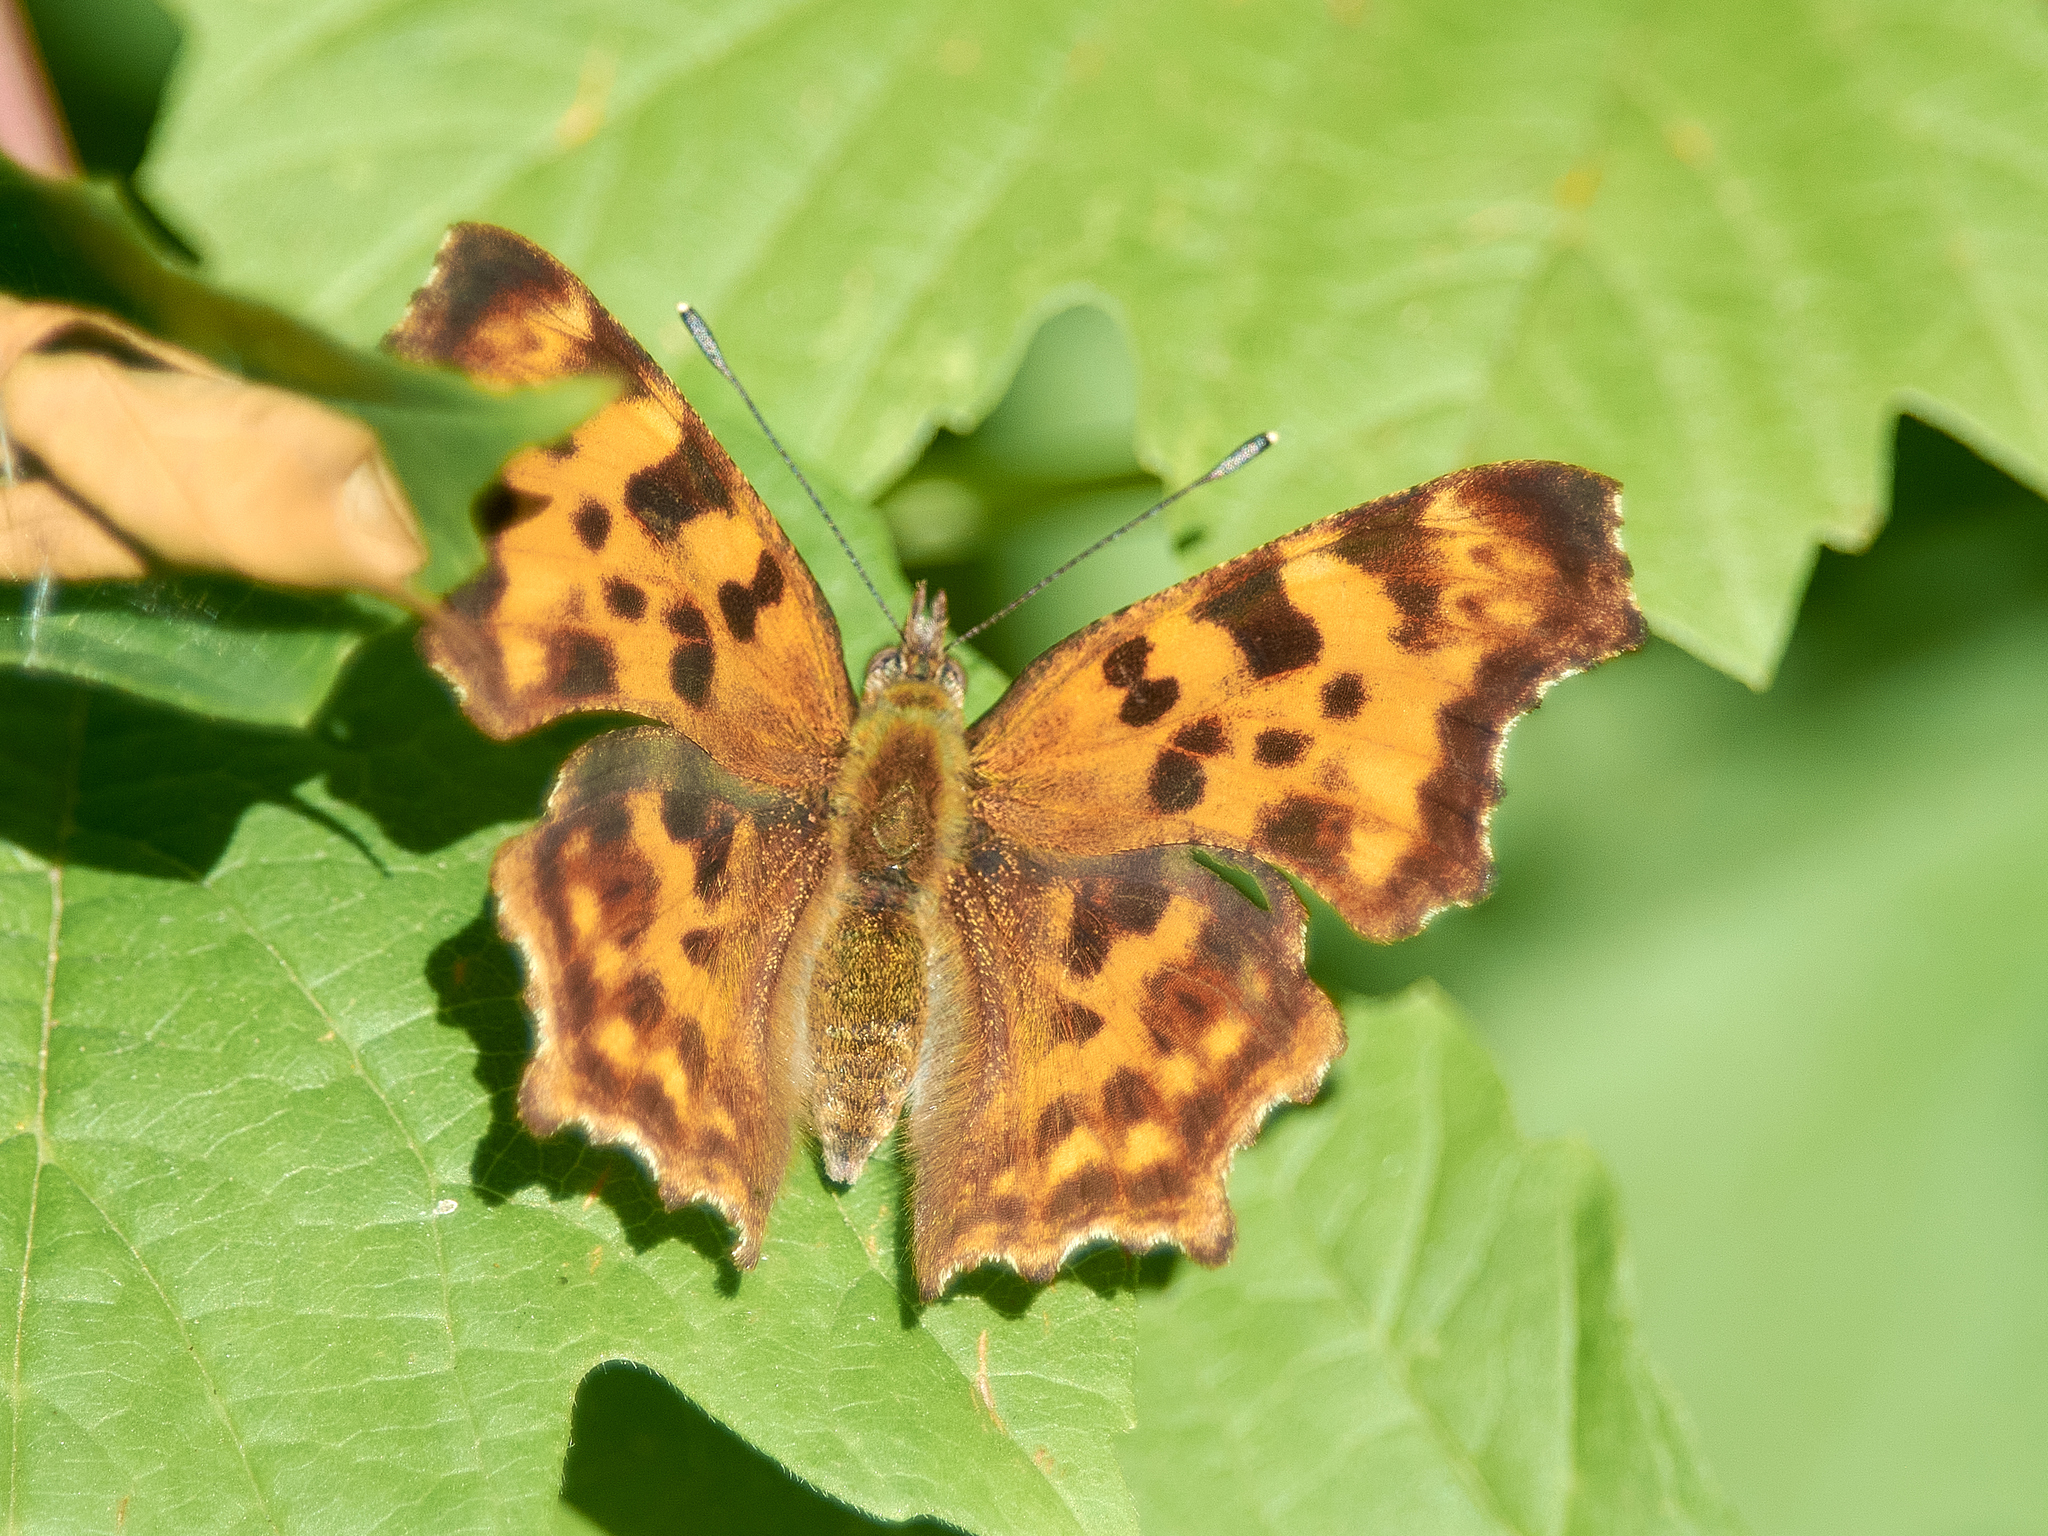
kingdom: Animalia
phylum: Arthropoda
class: Insecta
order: Lepidoptera
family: Nymphalidae
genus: Polygonia
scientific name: Polygonia c-album
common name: Comma
